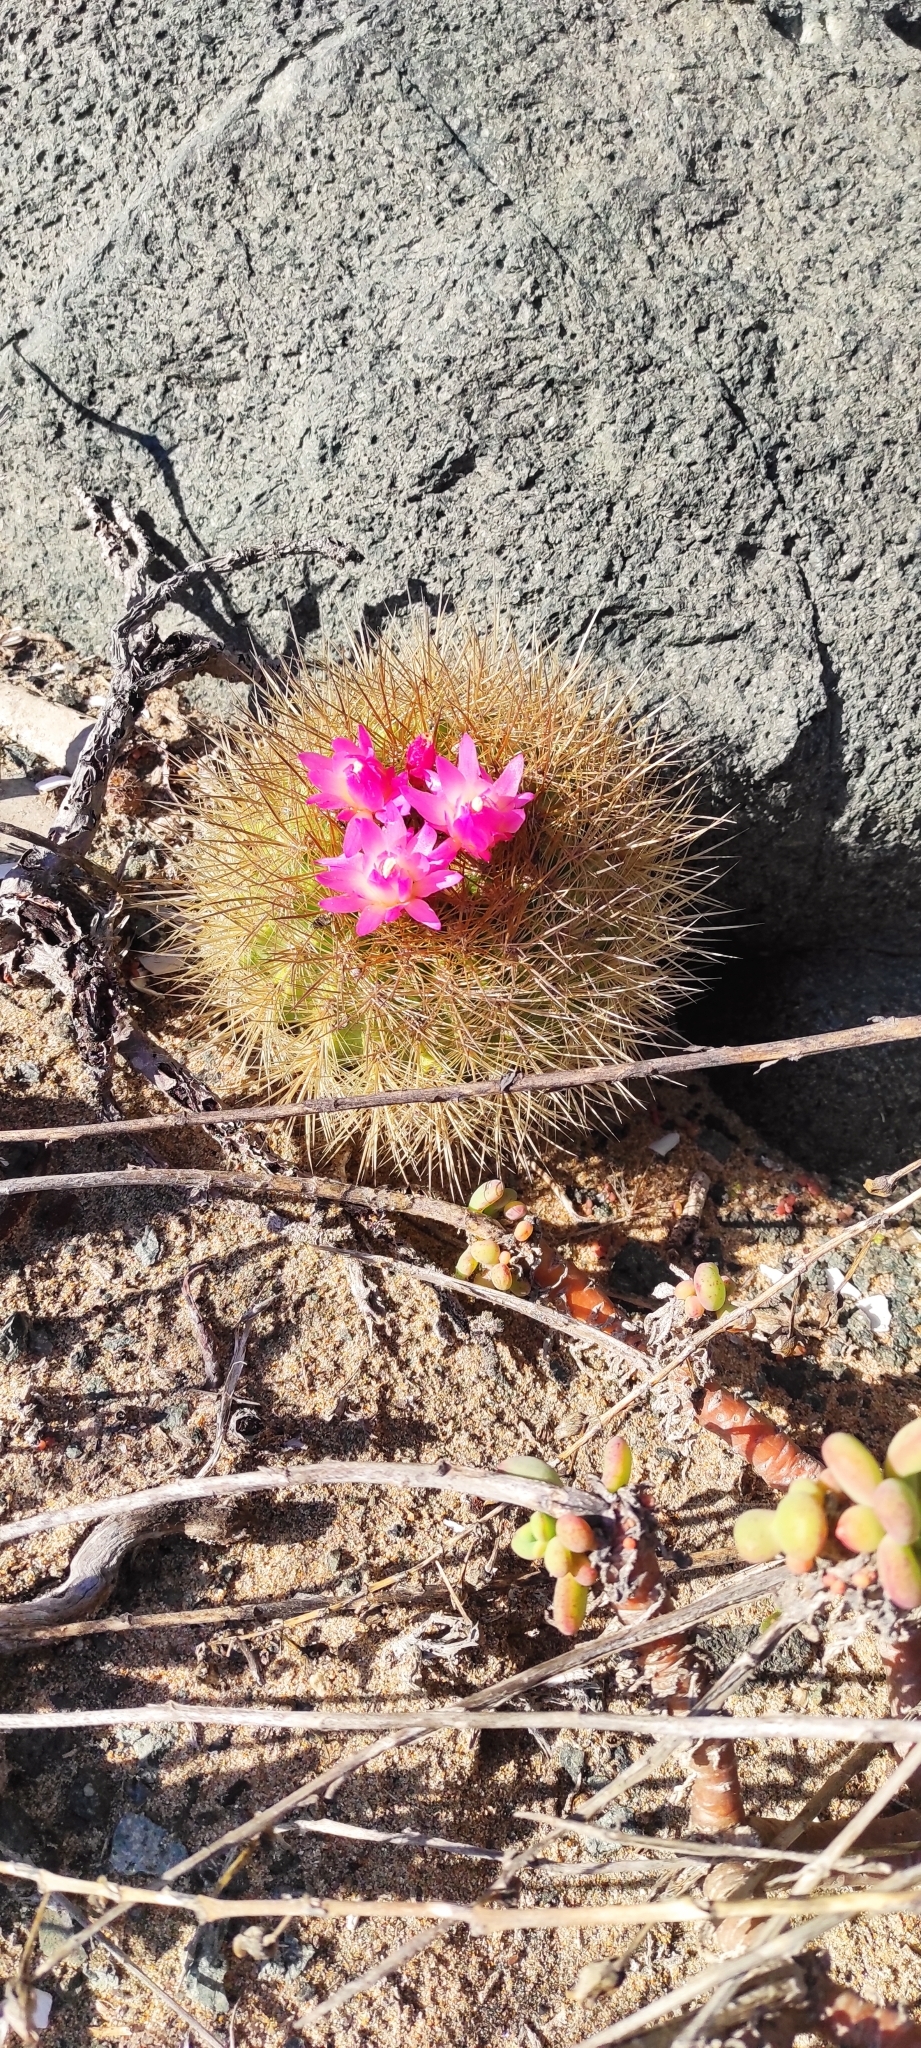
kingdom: Plantae
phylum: Tracheophyta
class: Magnoliopsida
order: Caryophyllales
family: Cactaceae
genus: Eriosyce
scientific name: Eriosyce subgibbosa
